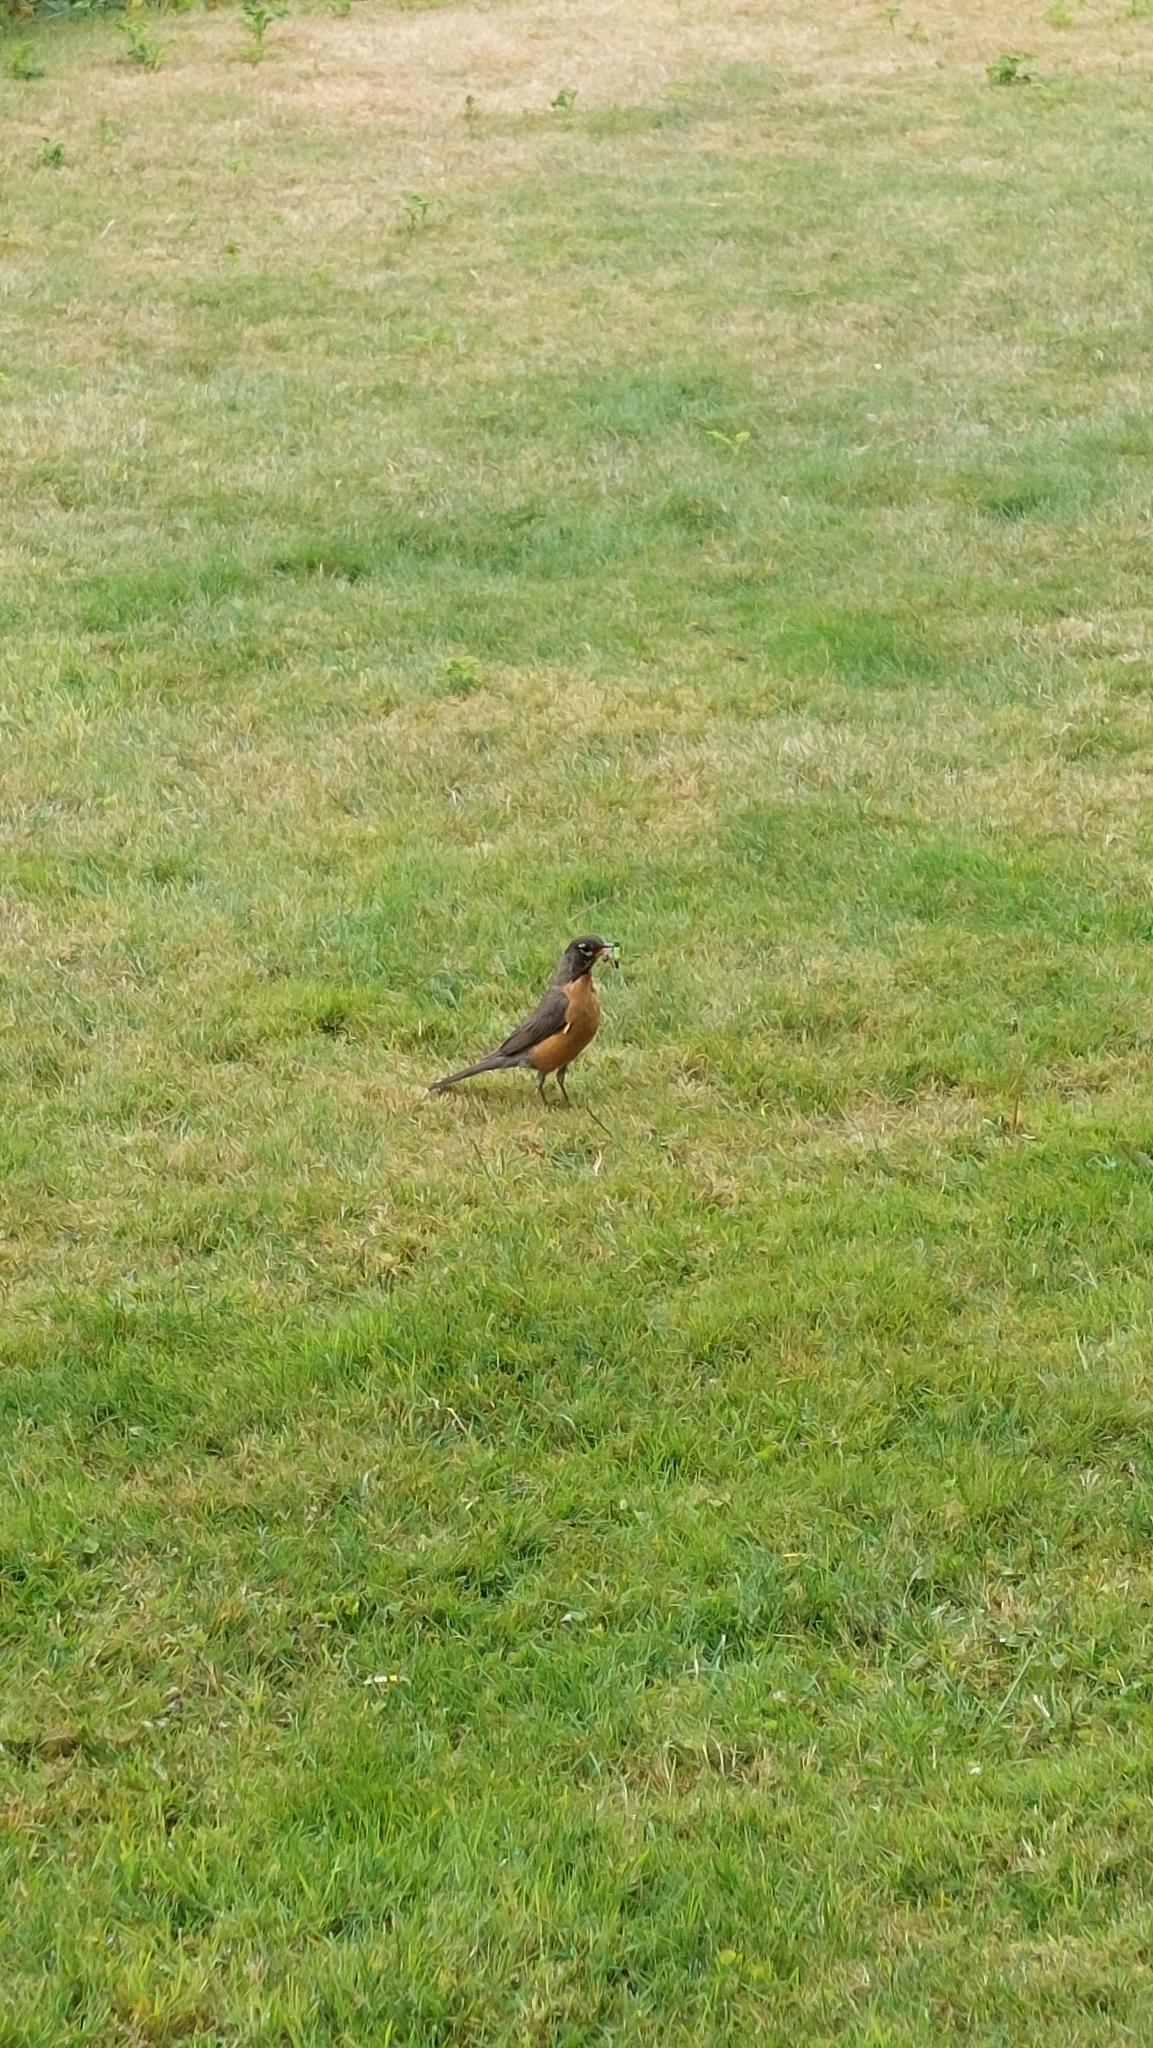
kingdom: Animalia
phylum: Chordata
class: Aves
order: Passeriformes
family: Turdidae
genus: Turdus
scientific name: Turdus migratorius
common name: American robin
